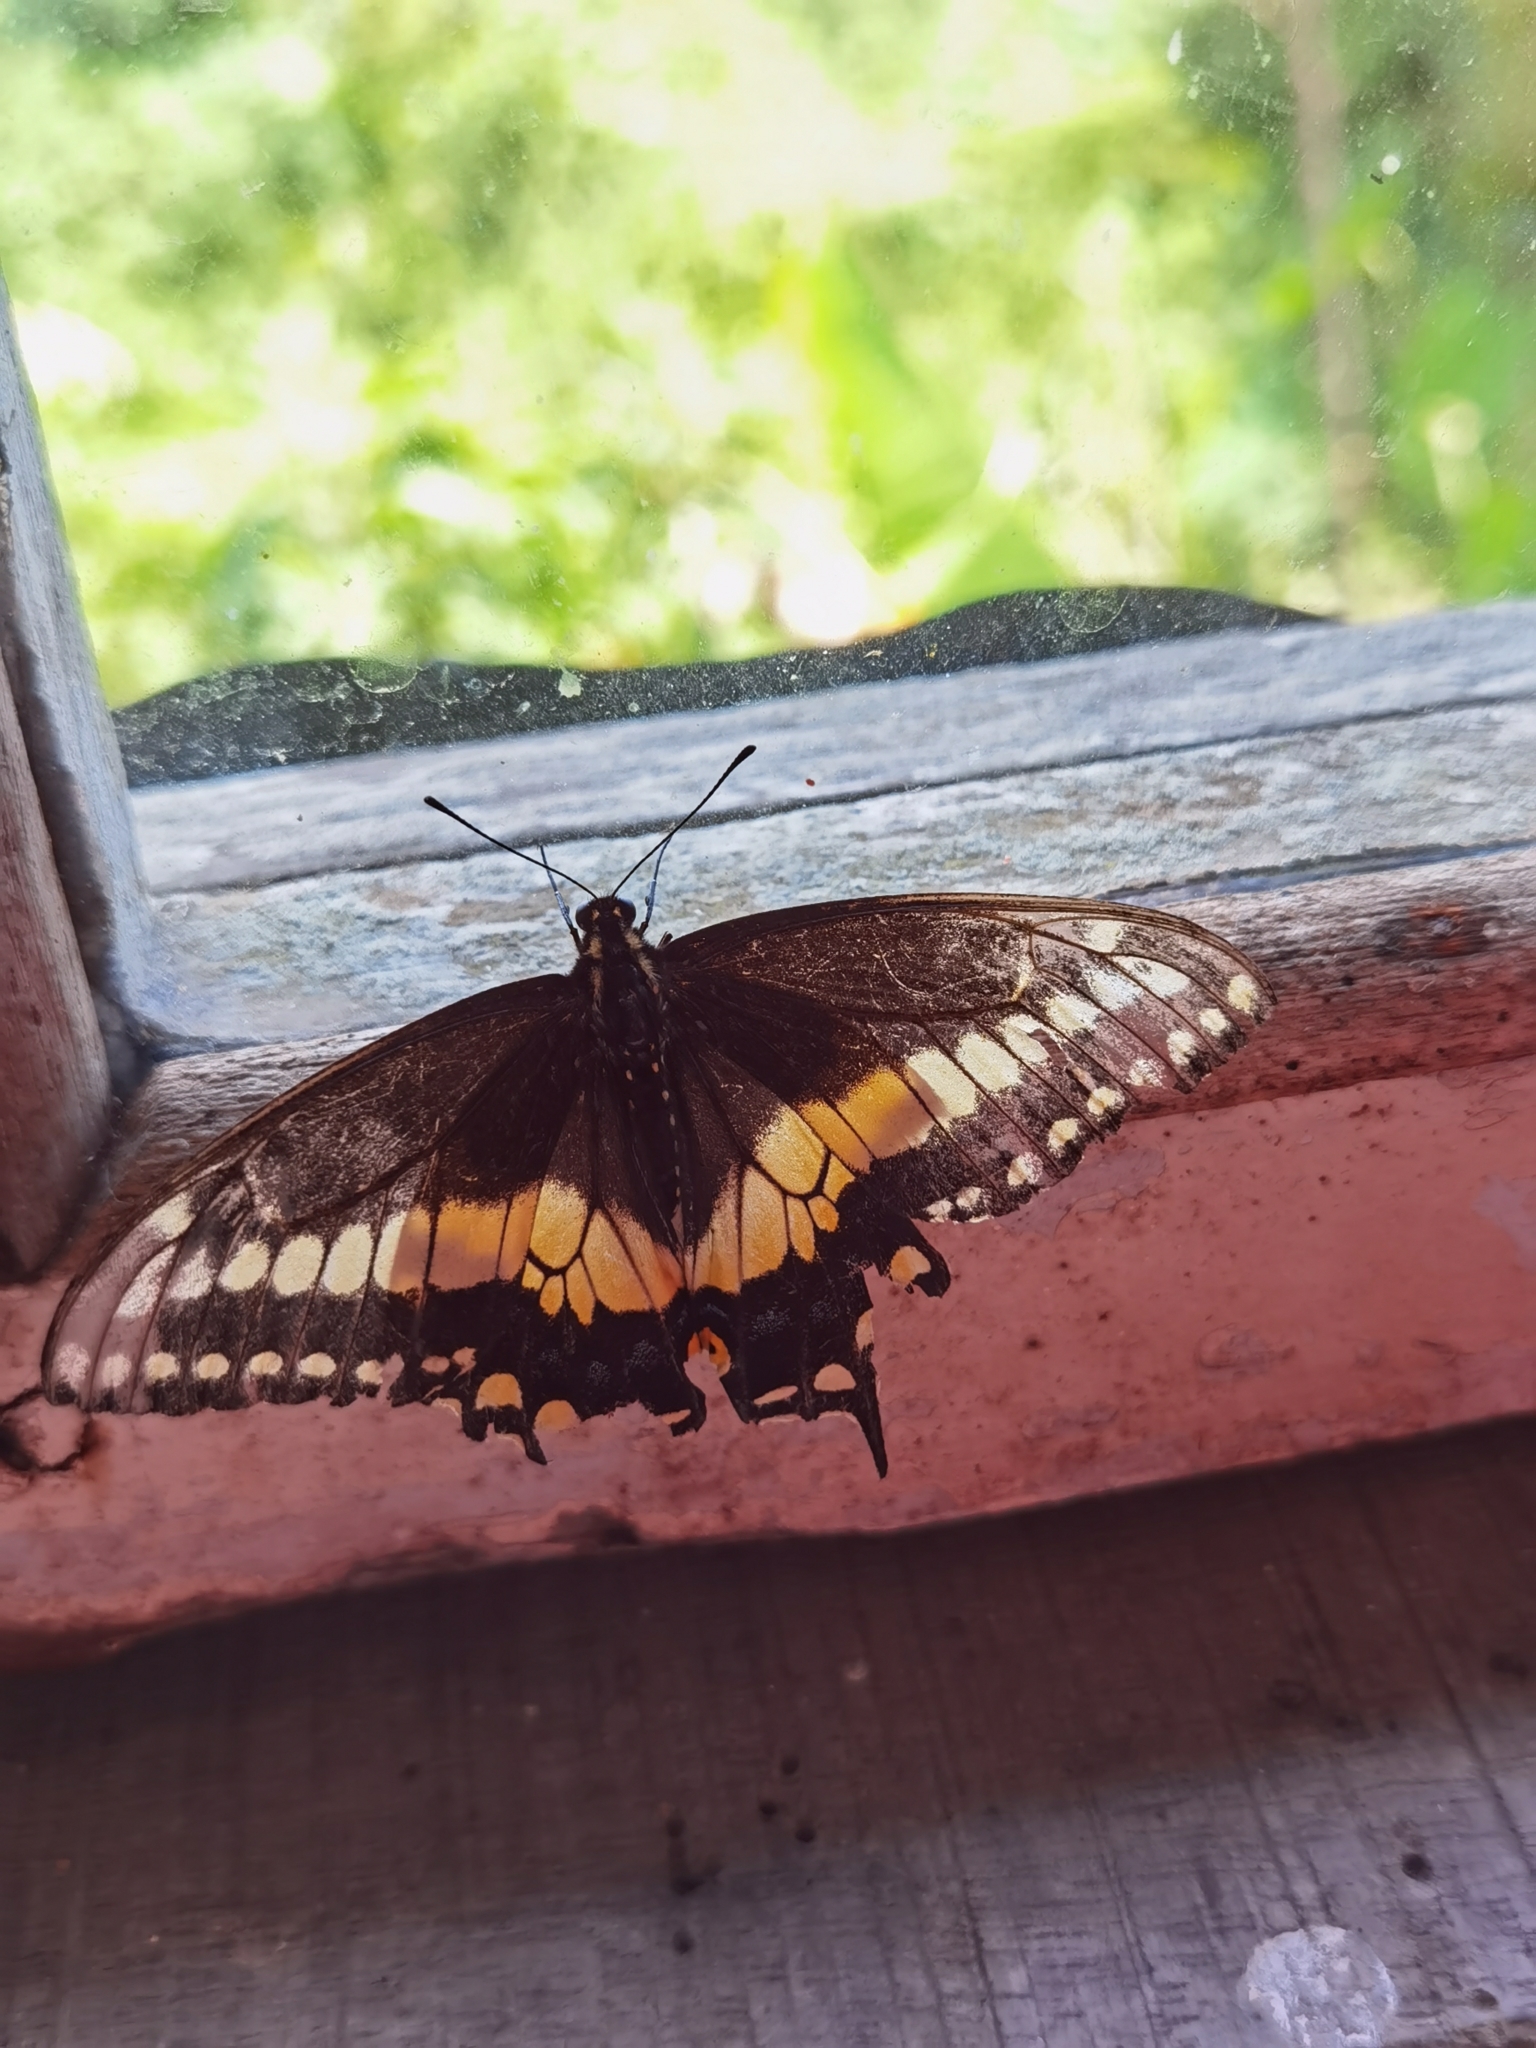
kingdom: Animalia
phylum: Arthropoda
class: Insecta
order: Lepidoptera
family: Papilionidae
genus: Papilio
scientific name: Papilio polyxenes
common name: Black swallowtail
